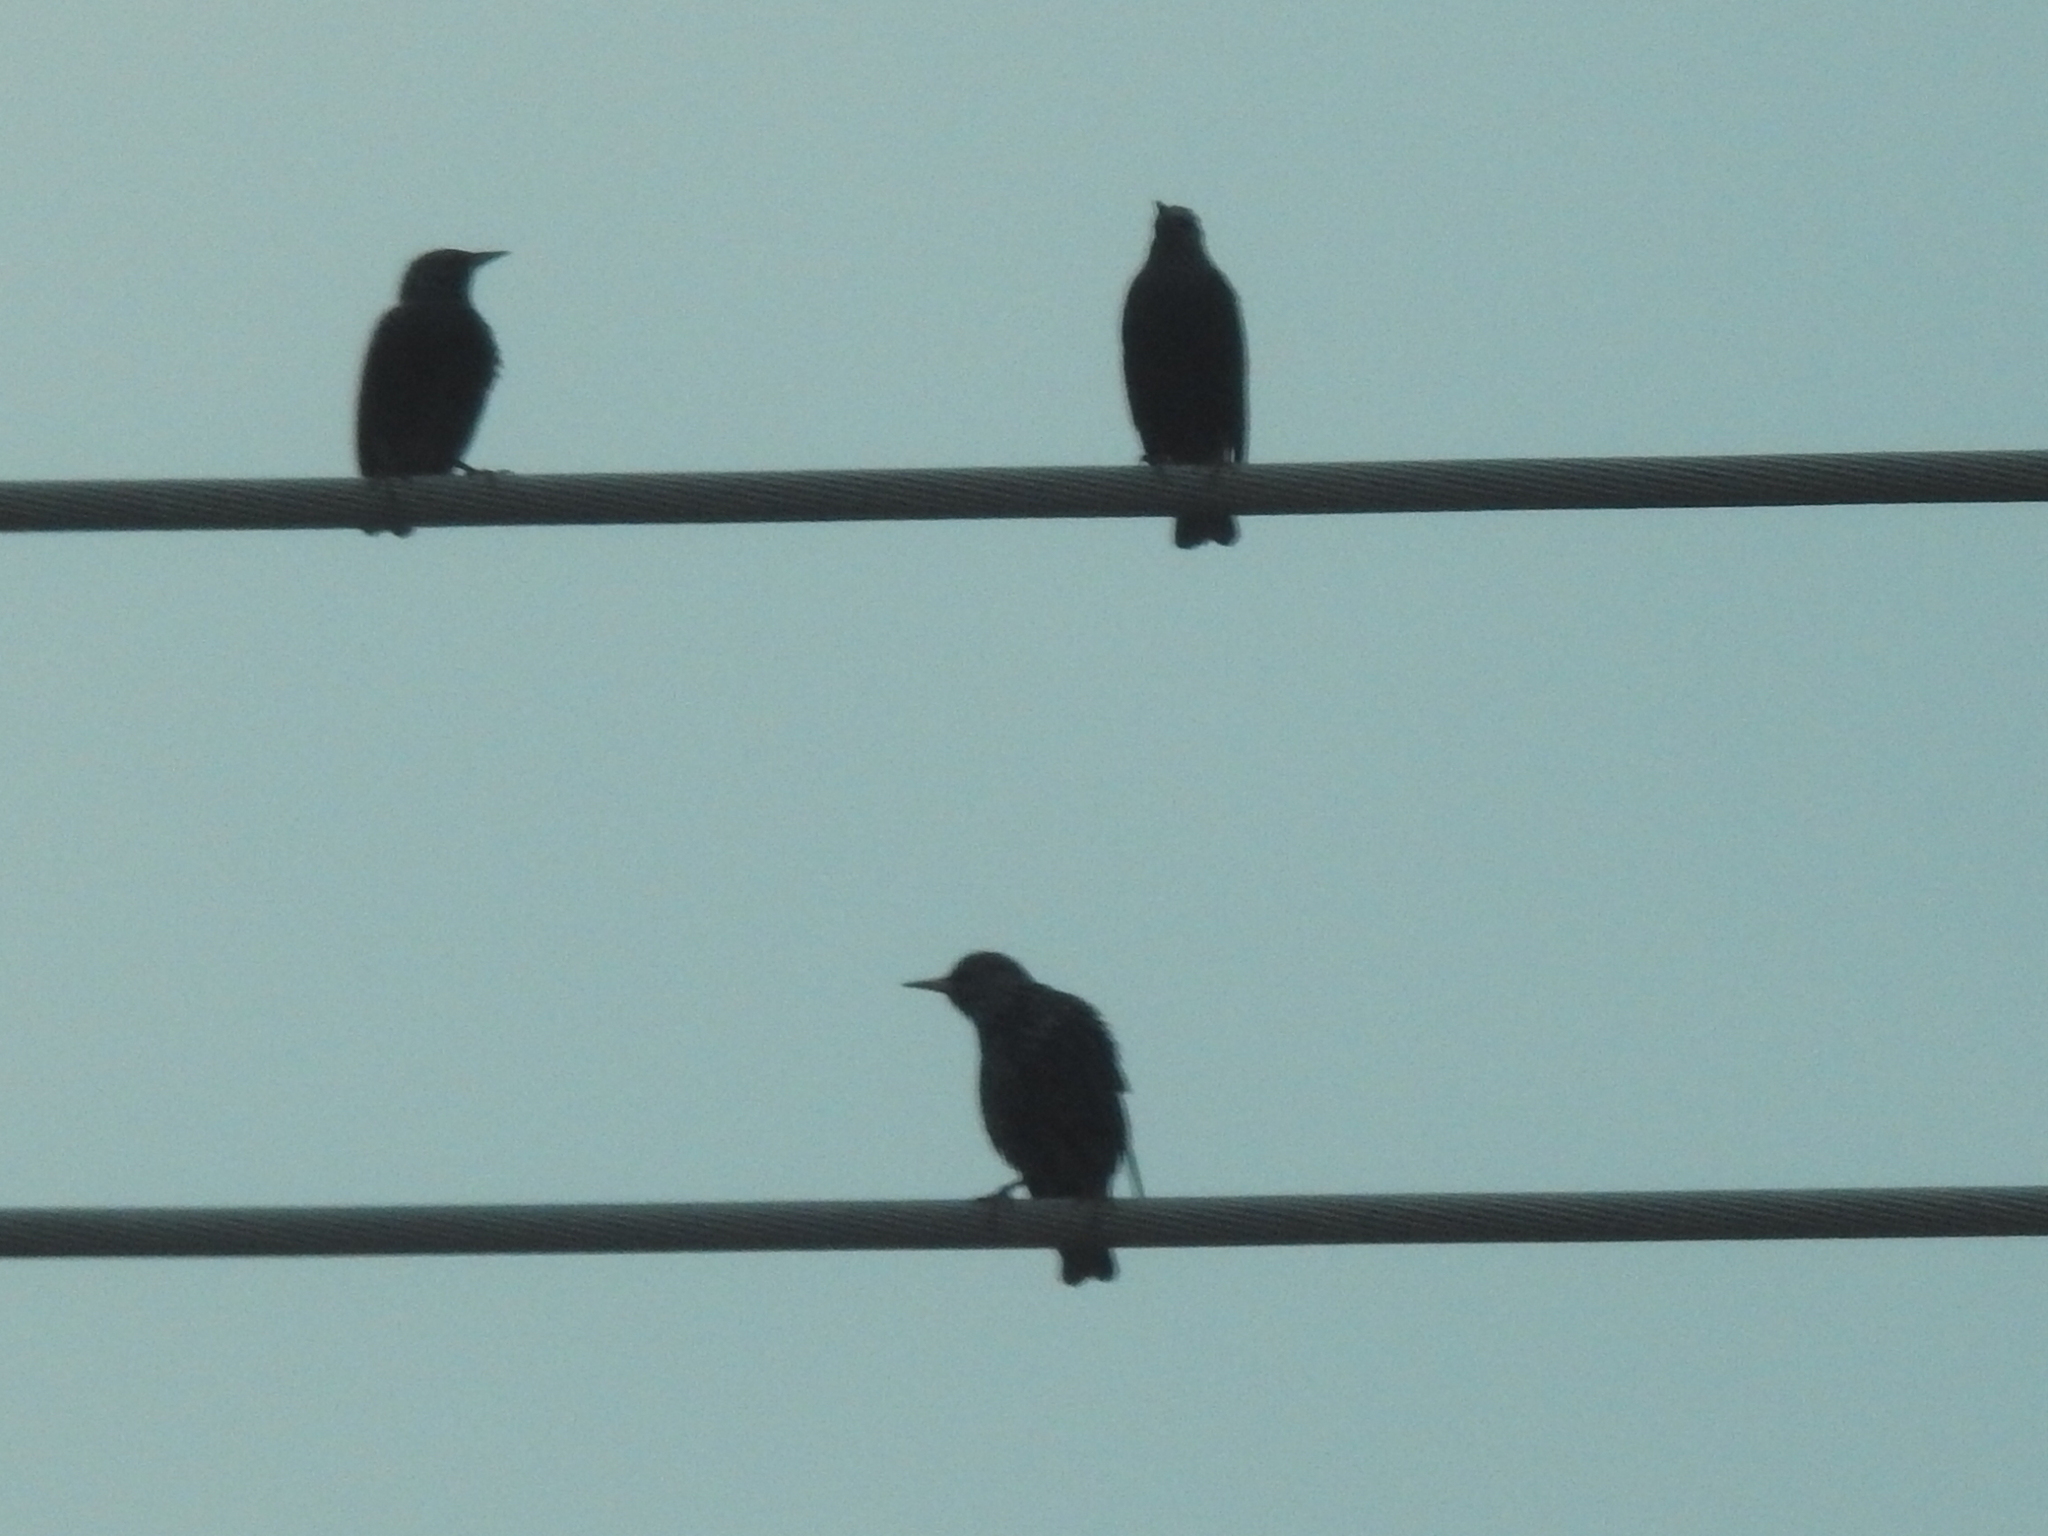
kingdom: Animalia
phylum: Chordata
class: Aves
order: Passeriformes
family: Sturnidae
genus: Sturnus
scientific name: Sturnus vulgaris
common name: Common starling
